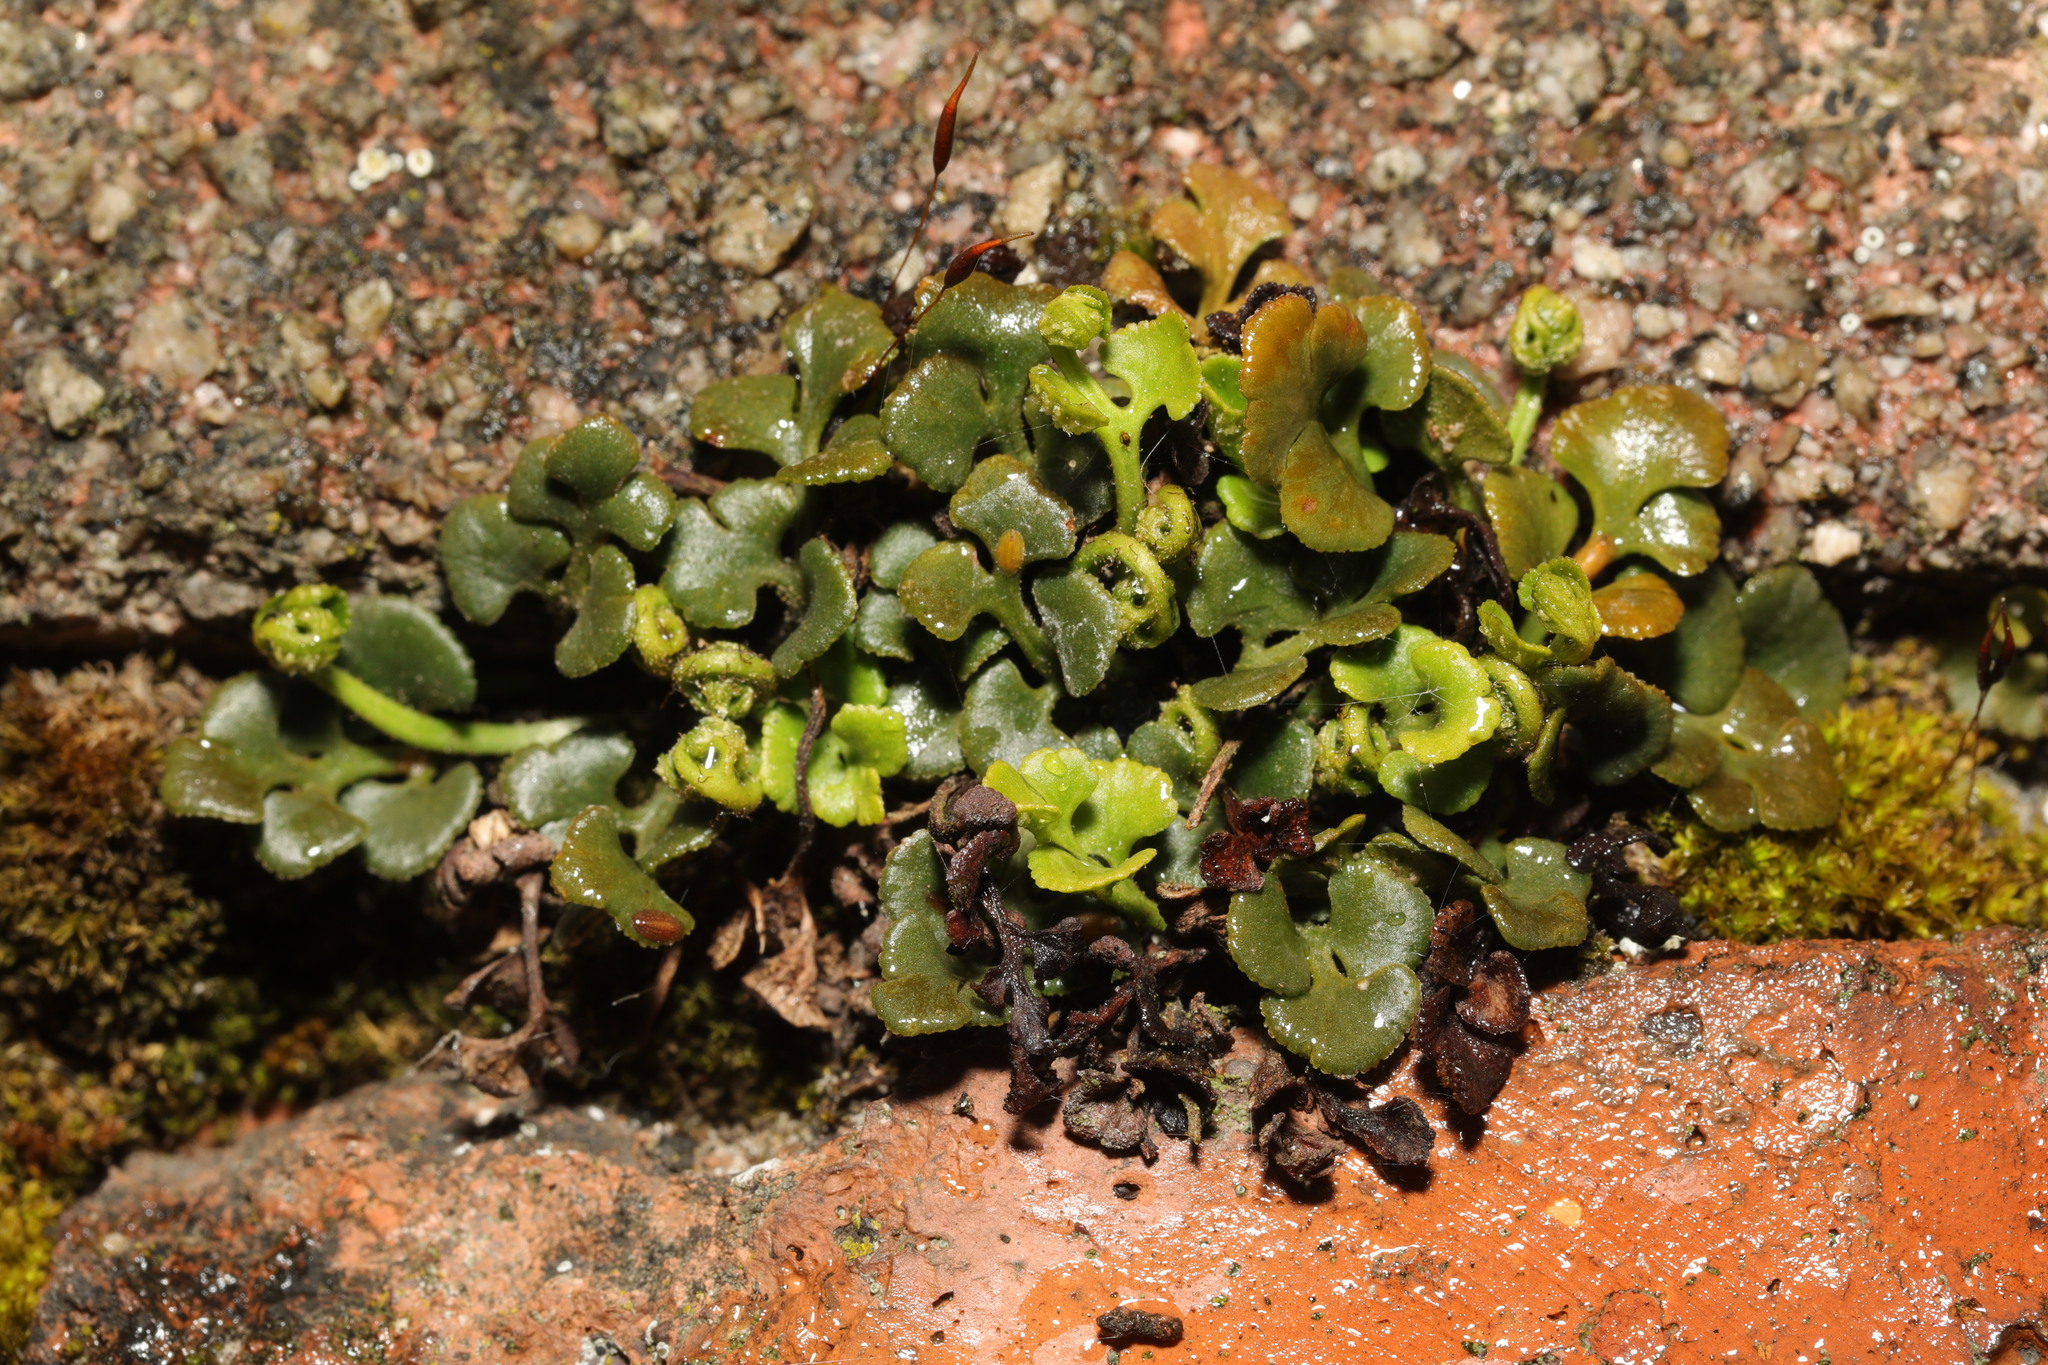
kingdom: Plantae
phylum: Tracheophyta
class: Polypodiopsida
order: Polypodiales
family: Aspleniaceae
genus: Asplenium
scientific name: Asplenium ruta-muraria
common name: Wall-rue
